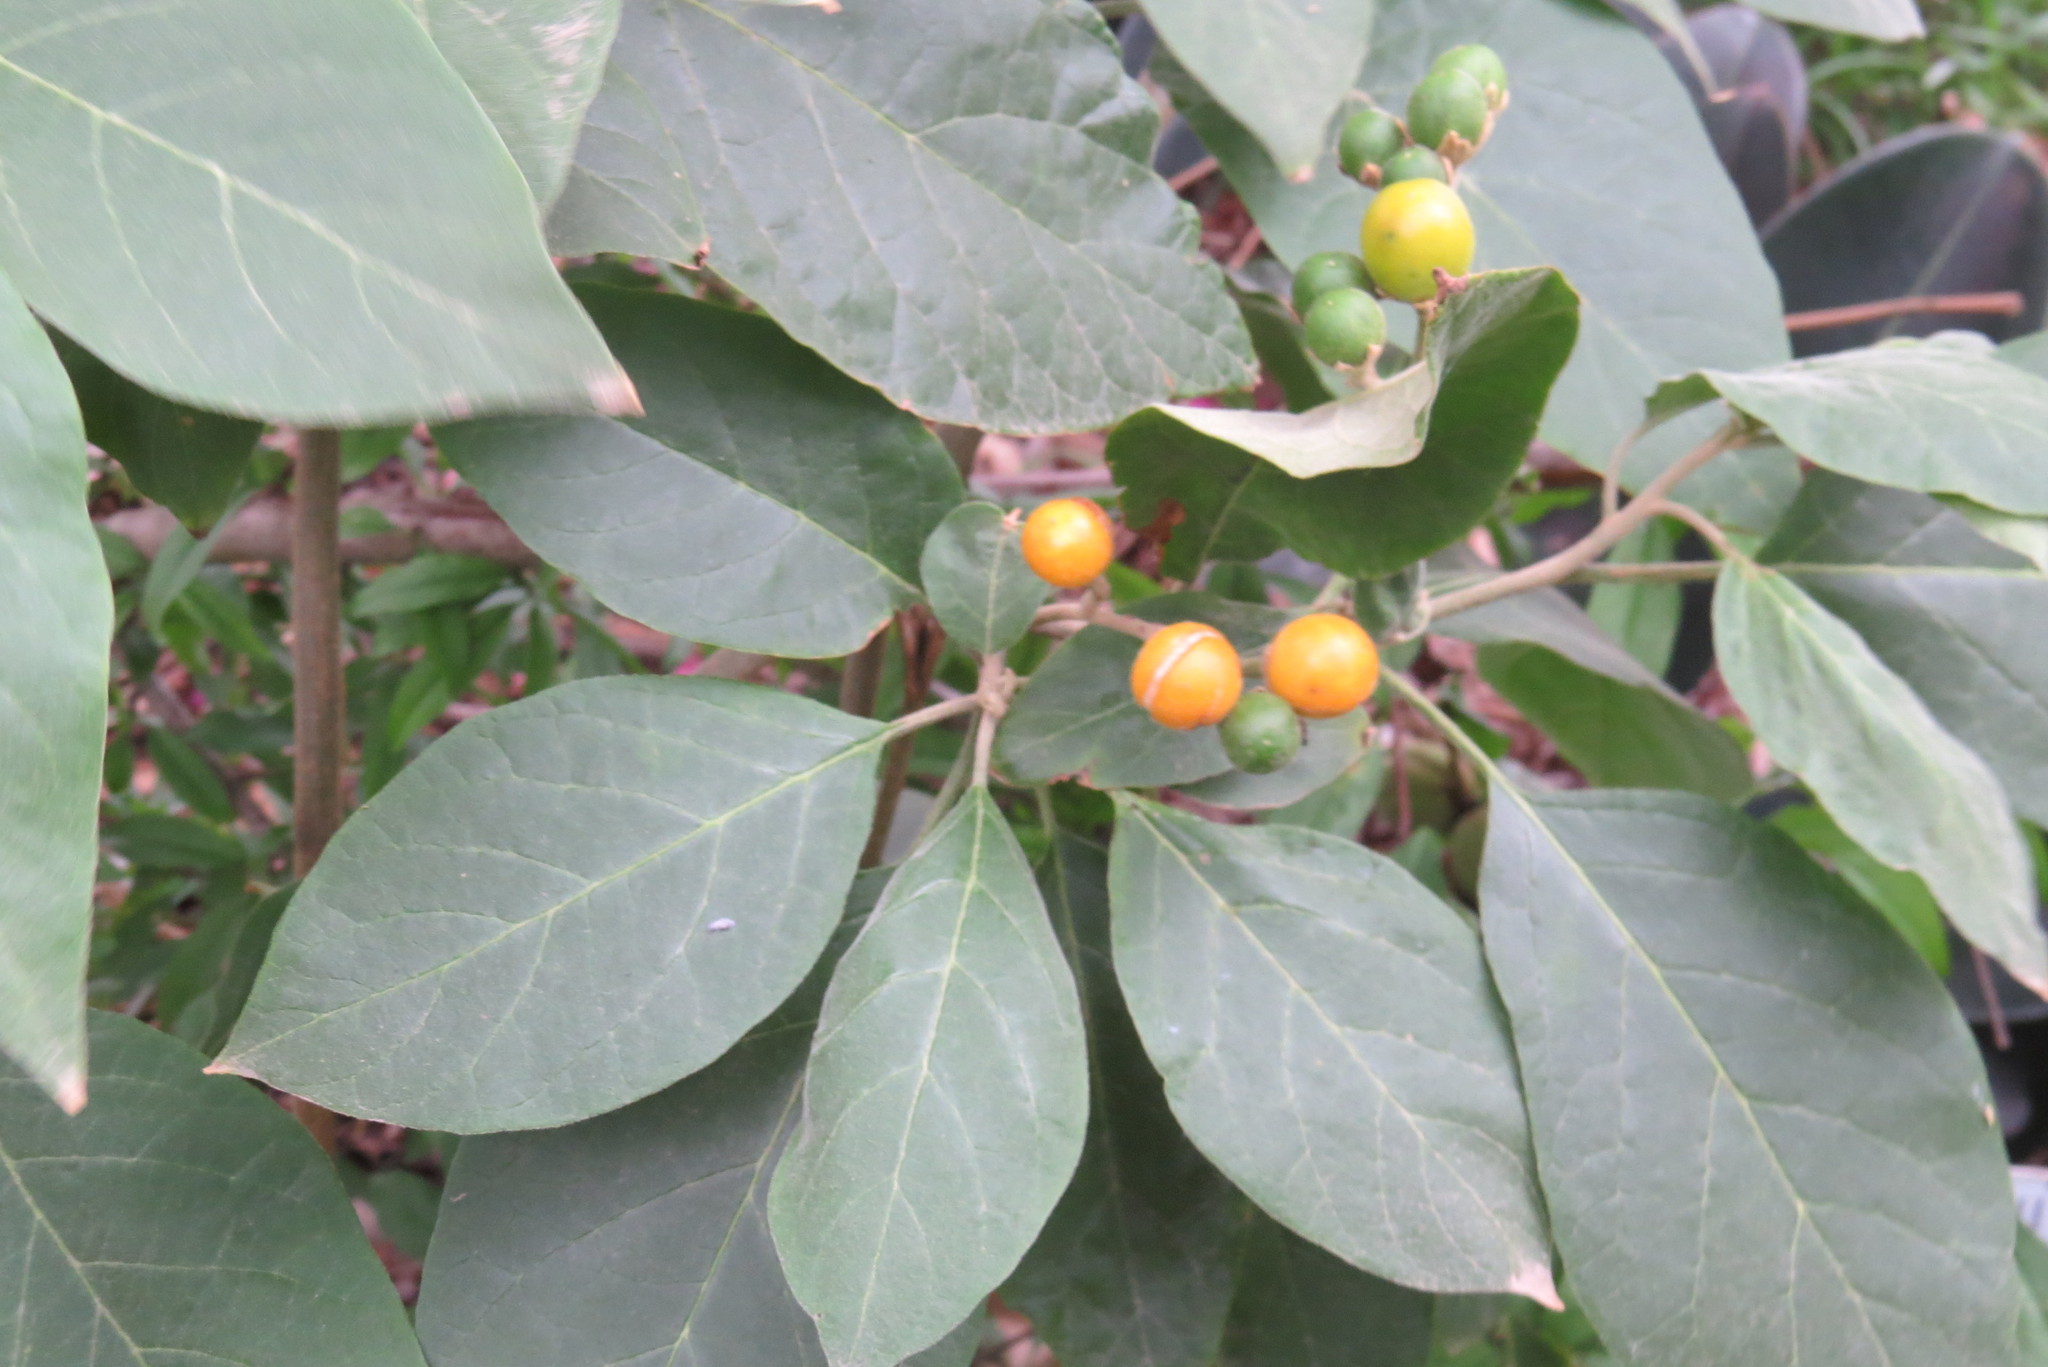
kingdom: Plantae
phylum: Tracheophyta
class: Magnoliopsida
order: Solanales
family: Solanaceae
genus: Solanum
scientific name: Solanum erianthum
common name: Tobacco-tree
